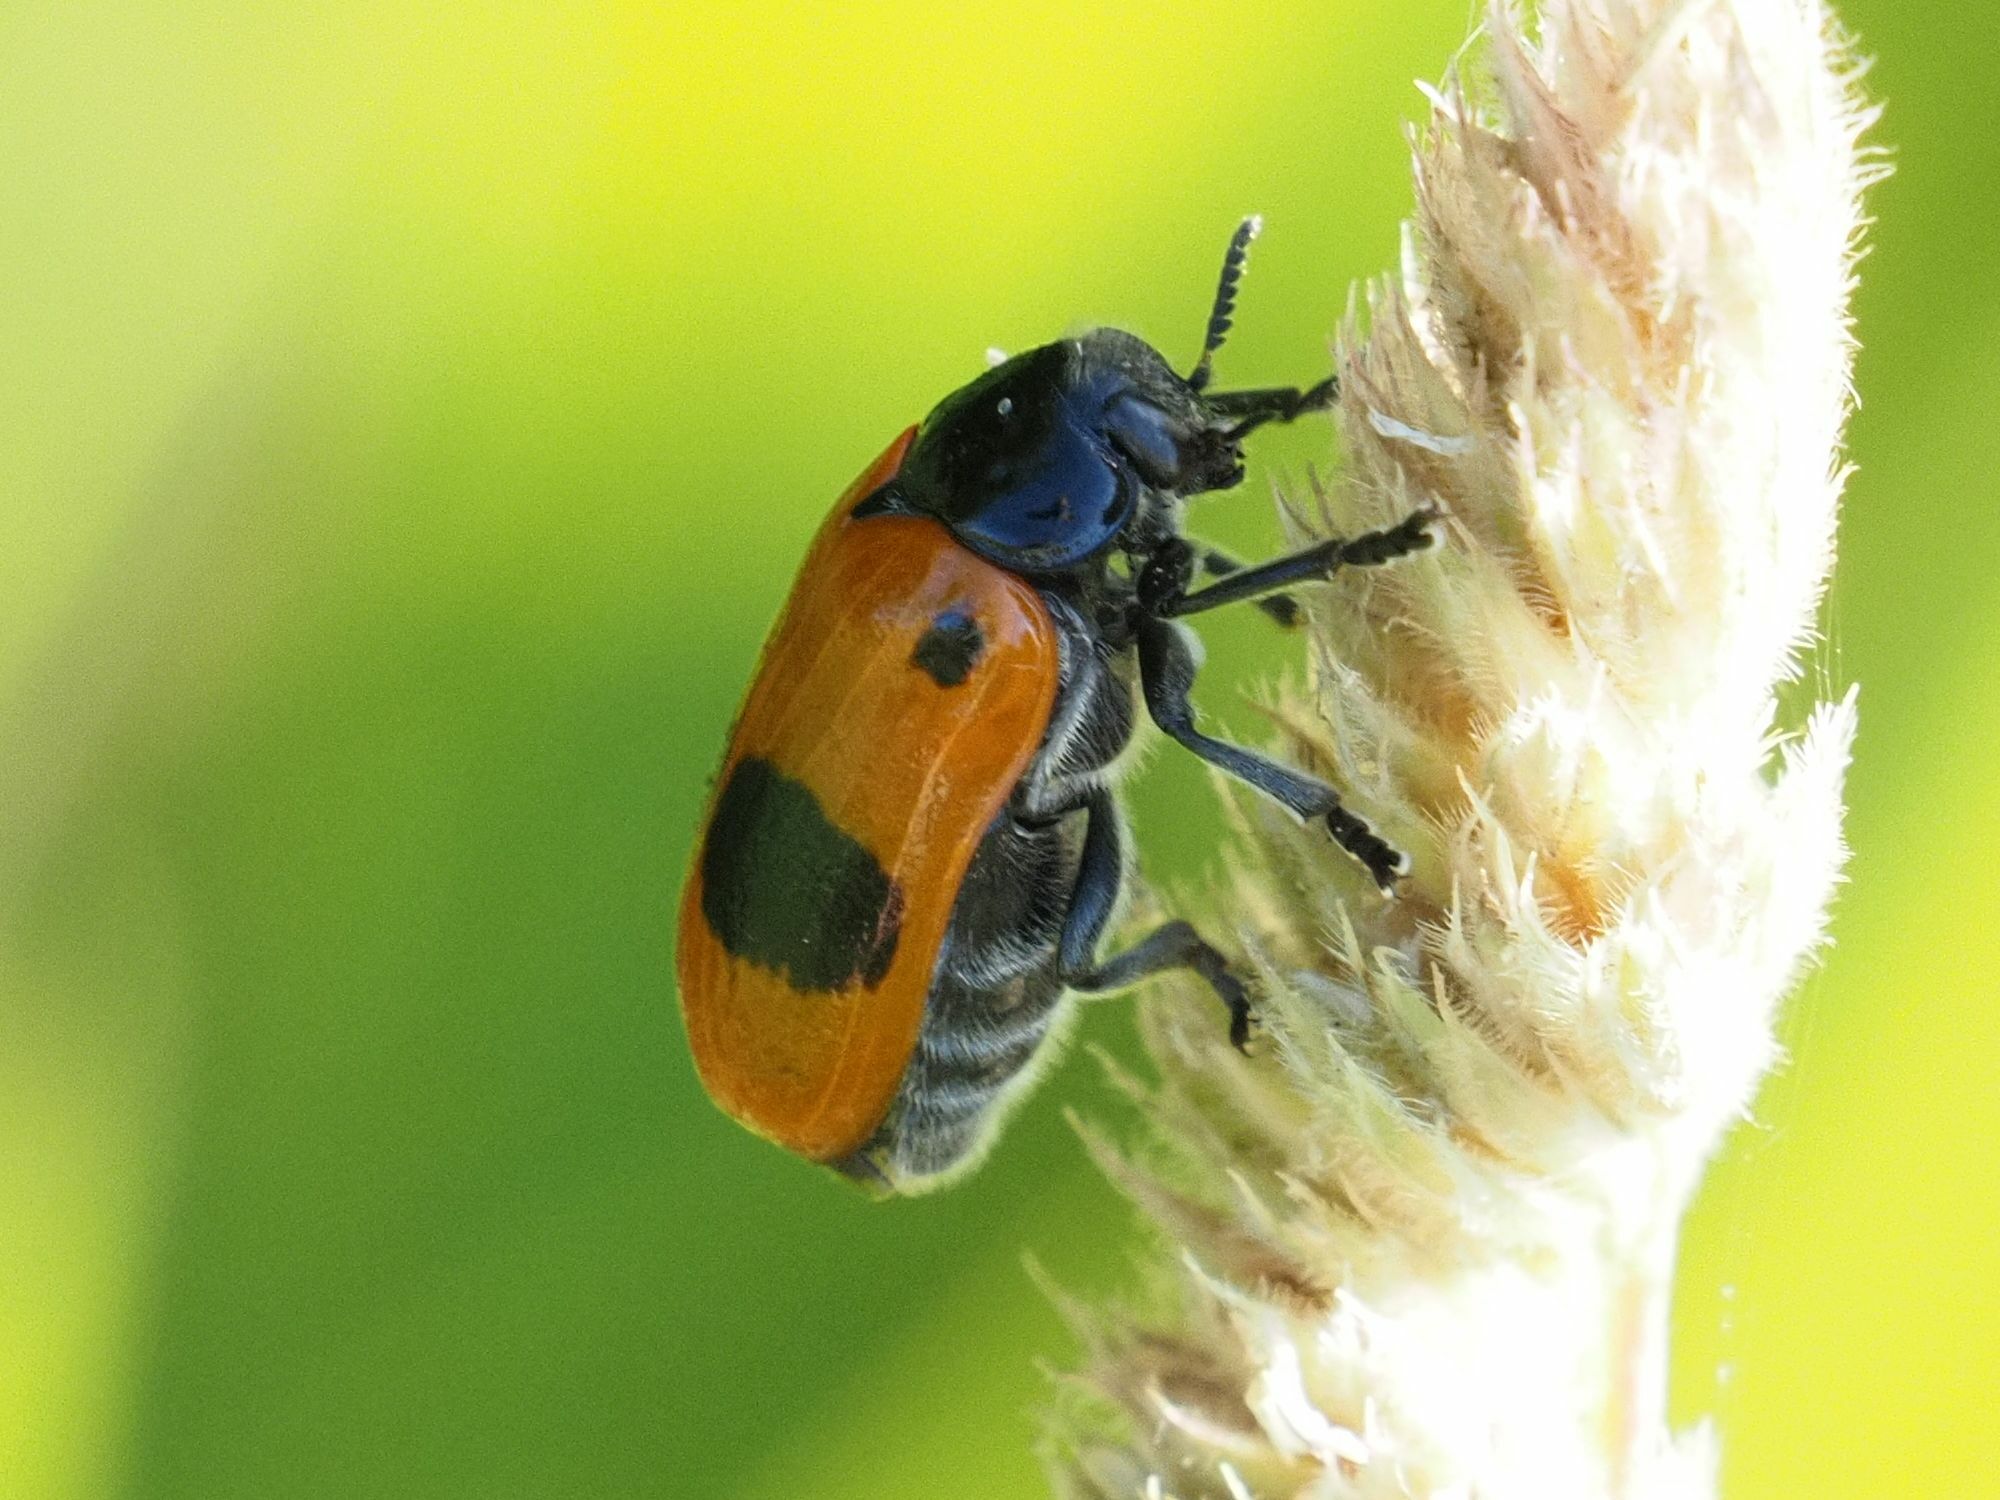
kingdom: Animalia
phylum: Arthropoda
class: Insecta
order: Coleoptera
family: Chrysomelidae
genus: Clytra
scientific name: Clytra laeviuscula
